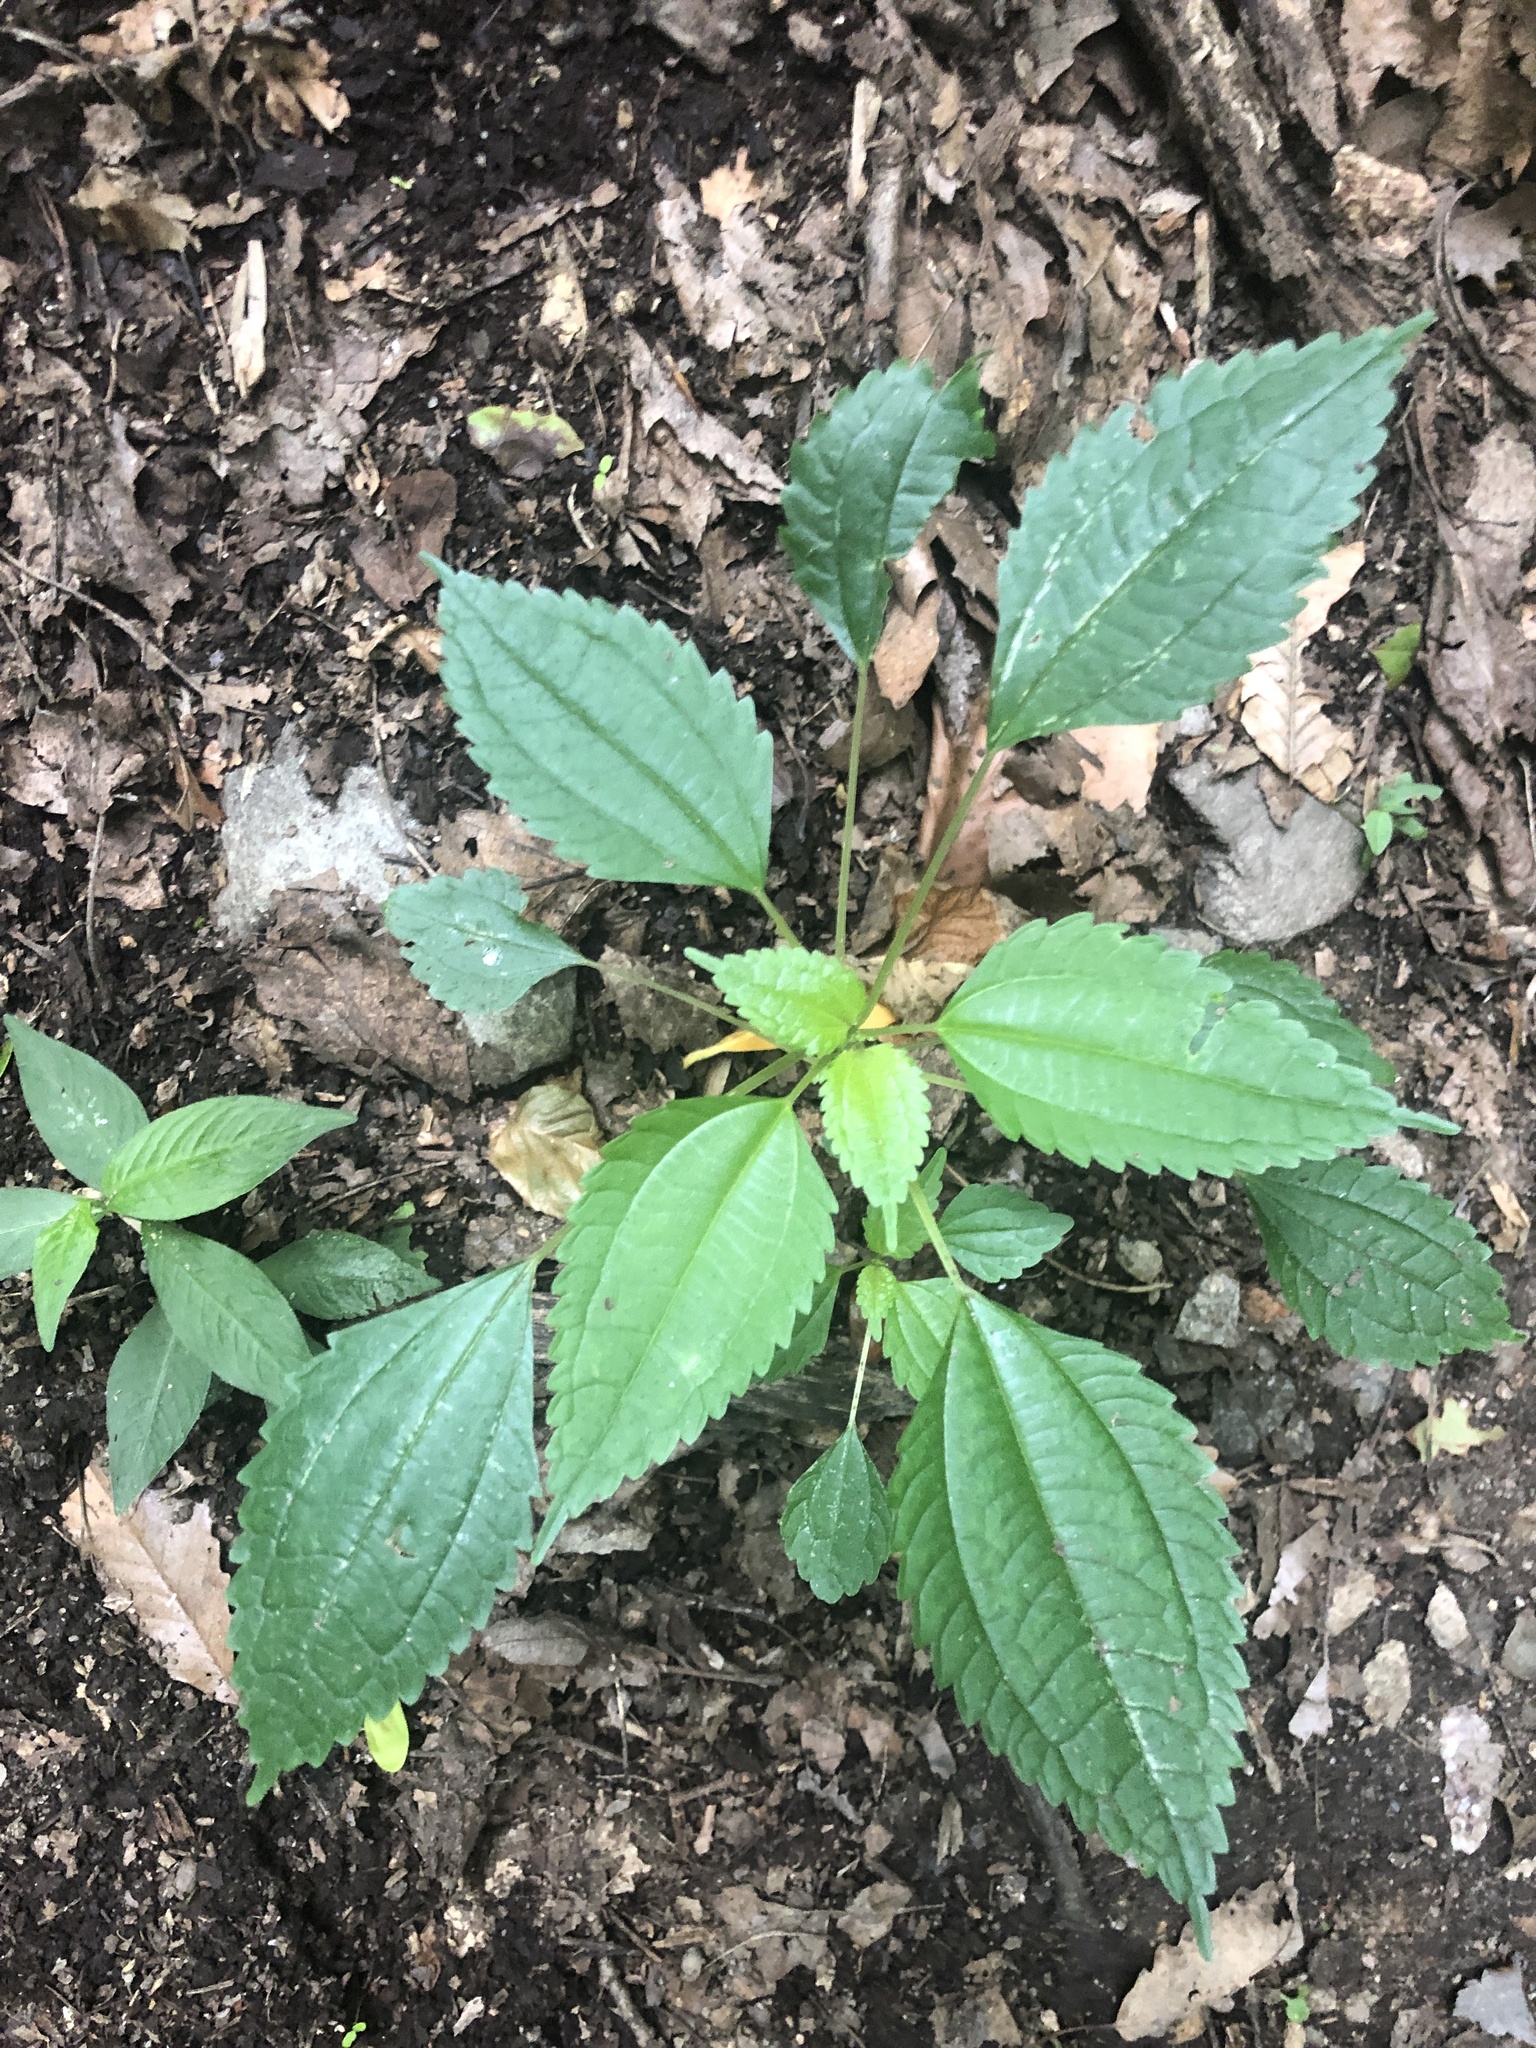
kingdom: Plantae
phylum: Tracheophyta
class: Magnoliopsida
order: Rosales
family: Urticaceae
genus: Pilea
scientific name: Pilea pumila
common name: Clearweed
